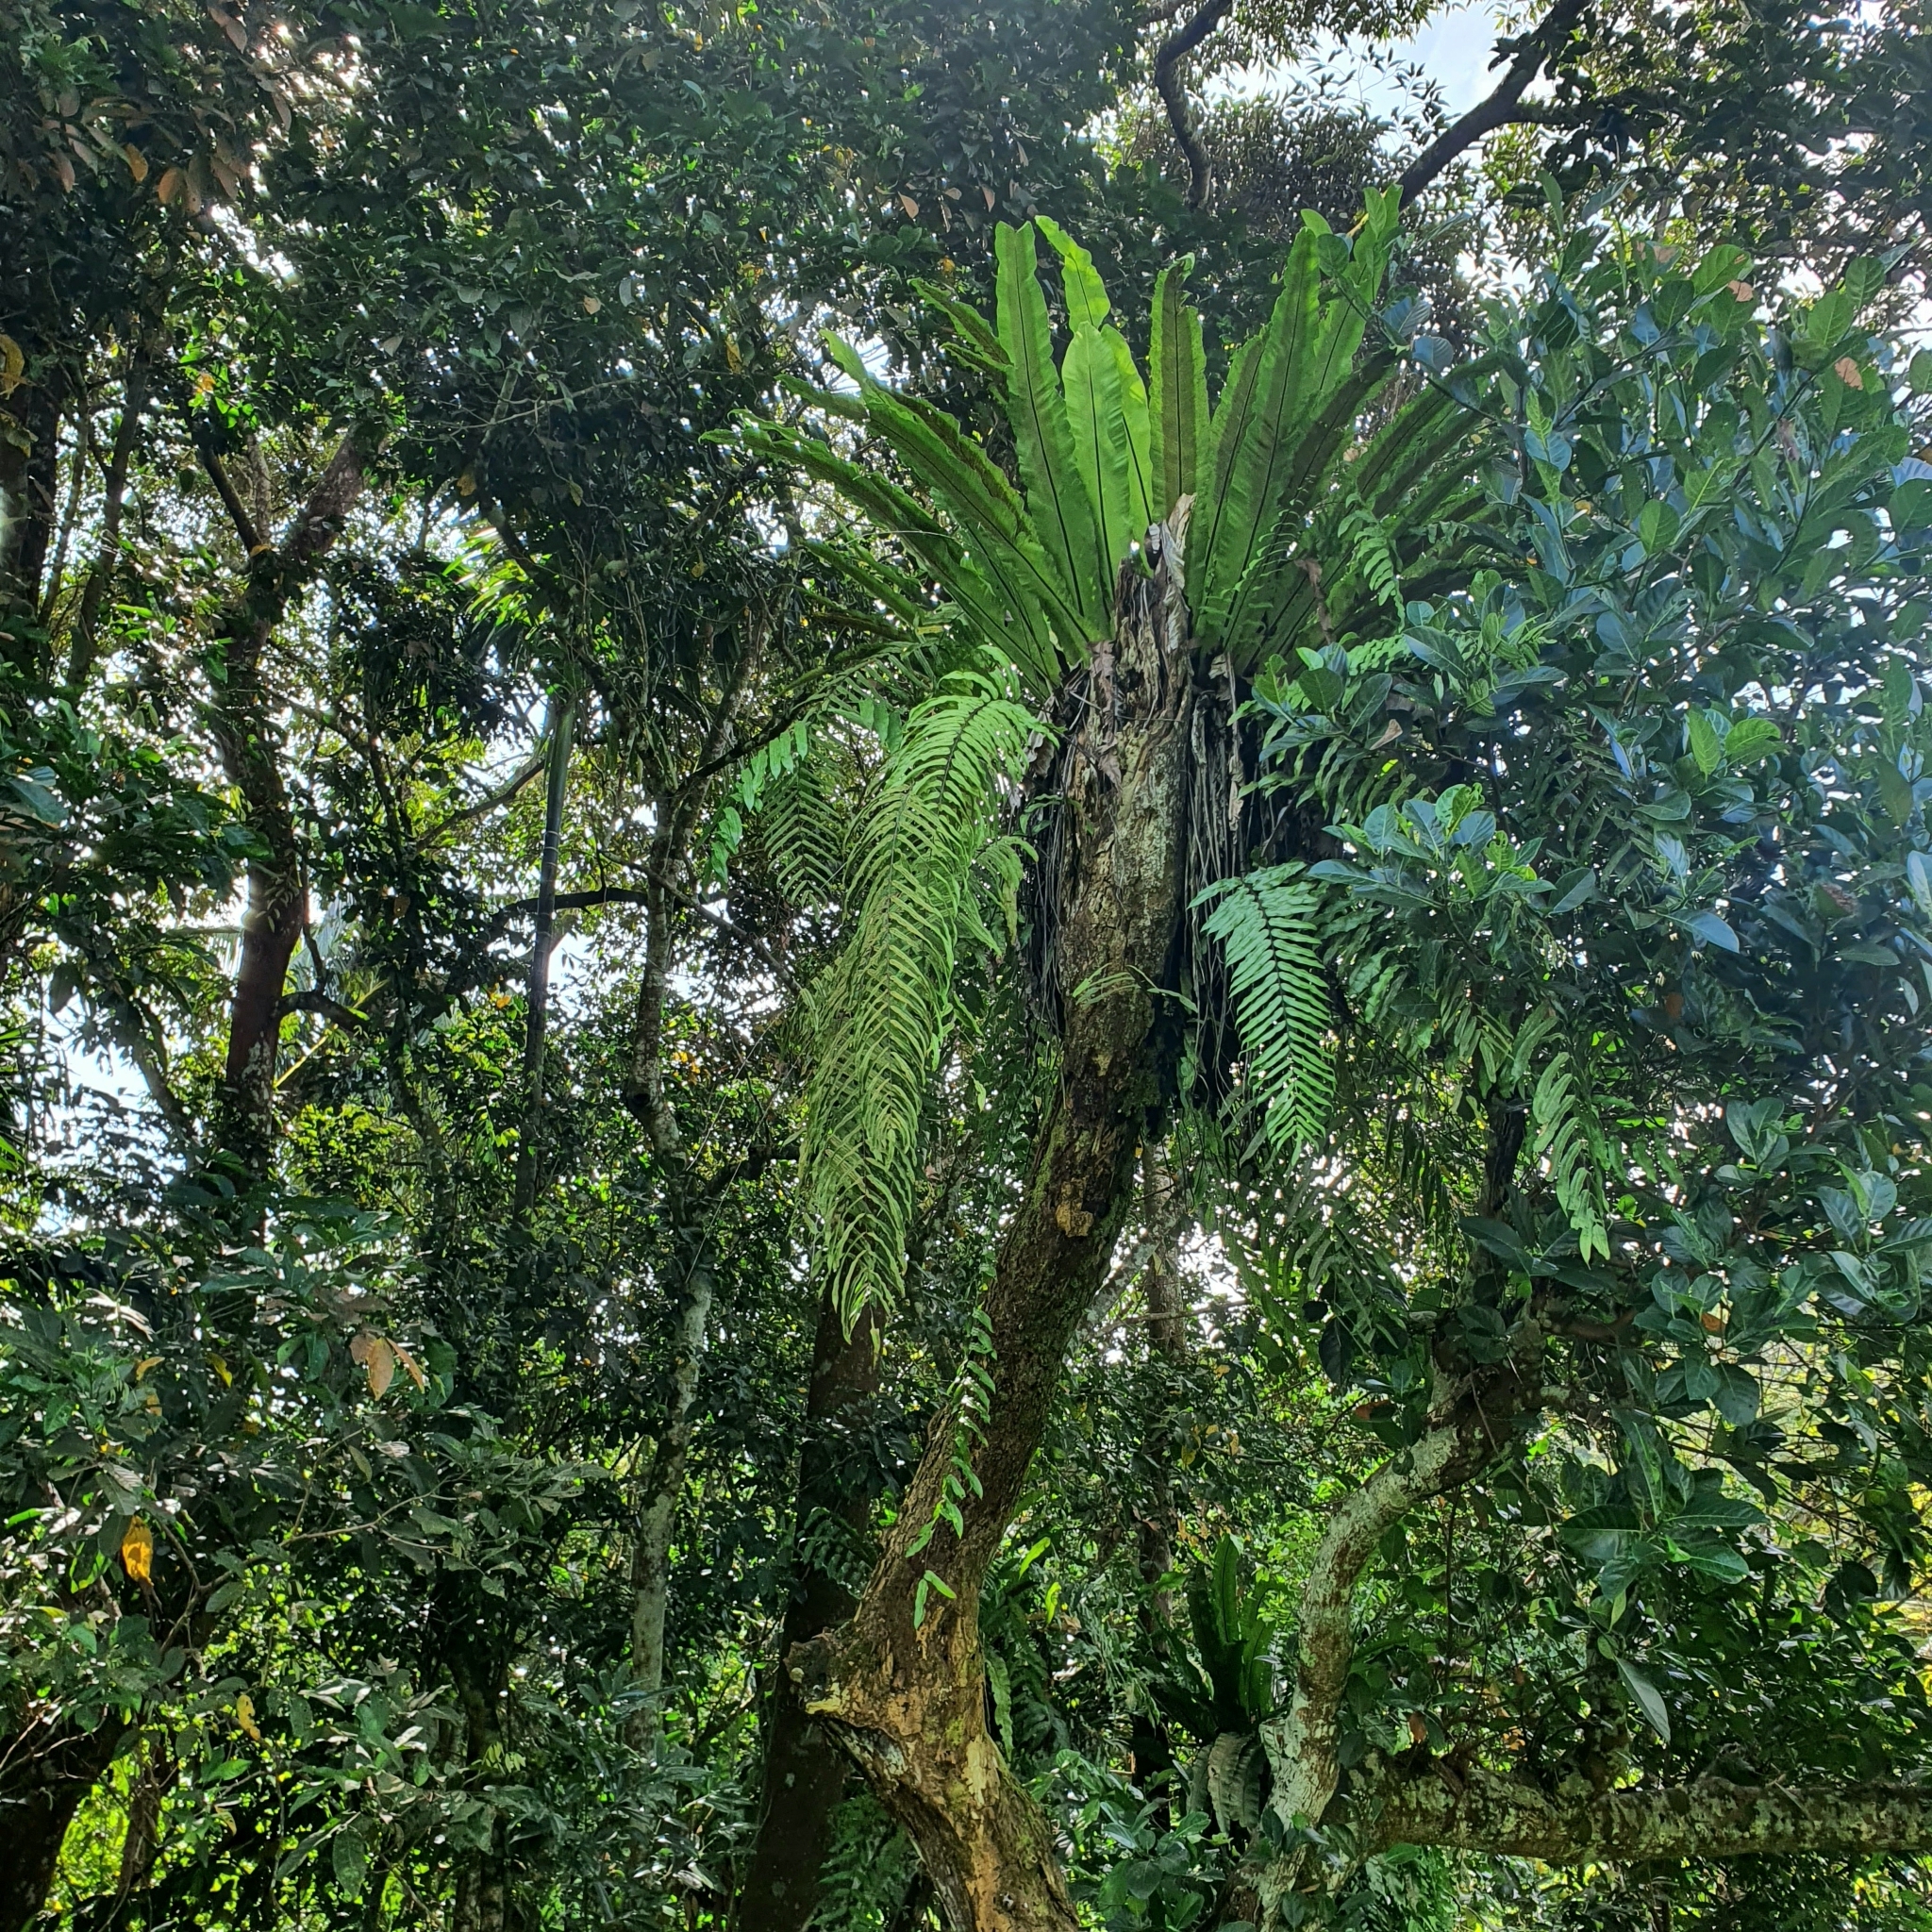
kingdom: Plantae
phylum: Tracheophyta
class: Polypodiopsida
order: Polypodiales
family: Polypodiaceae
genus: Goniophlebium
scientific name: Goniophlebium percussum
